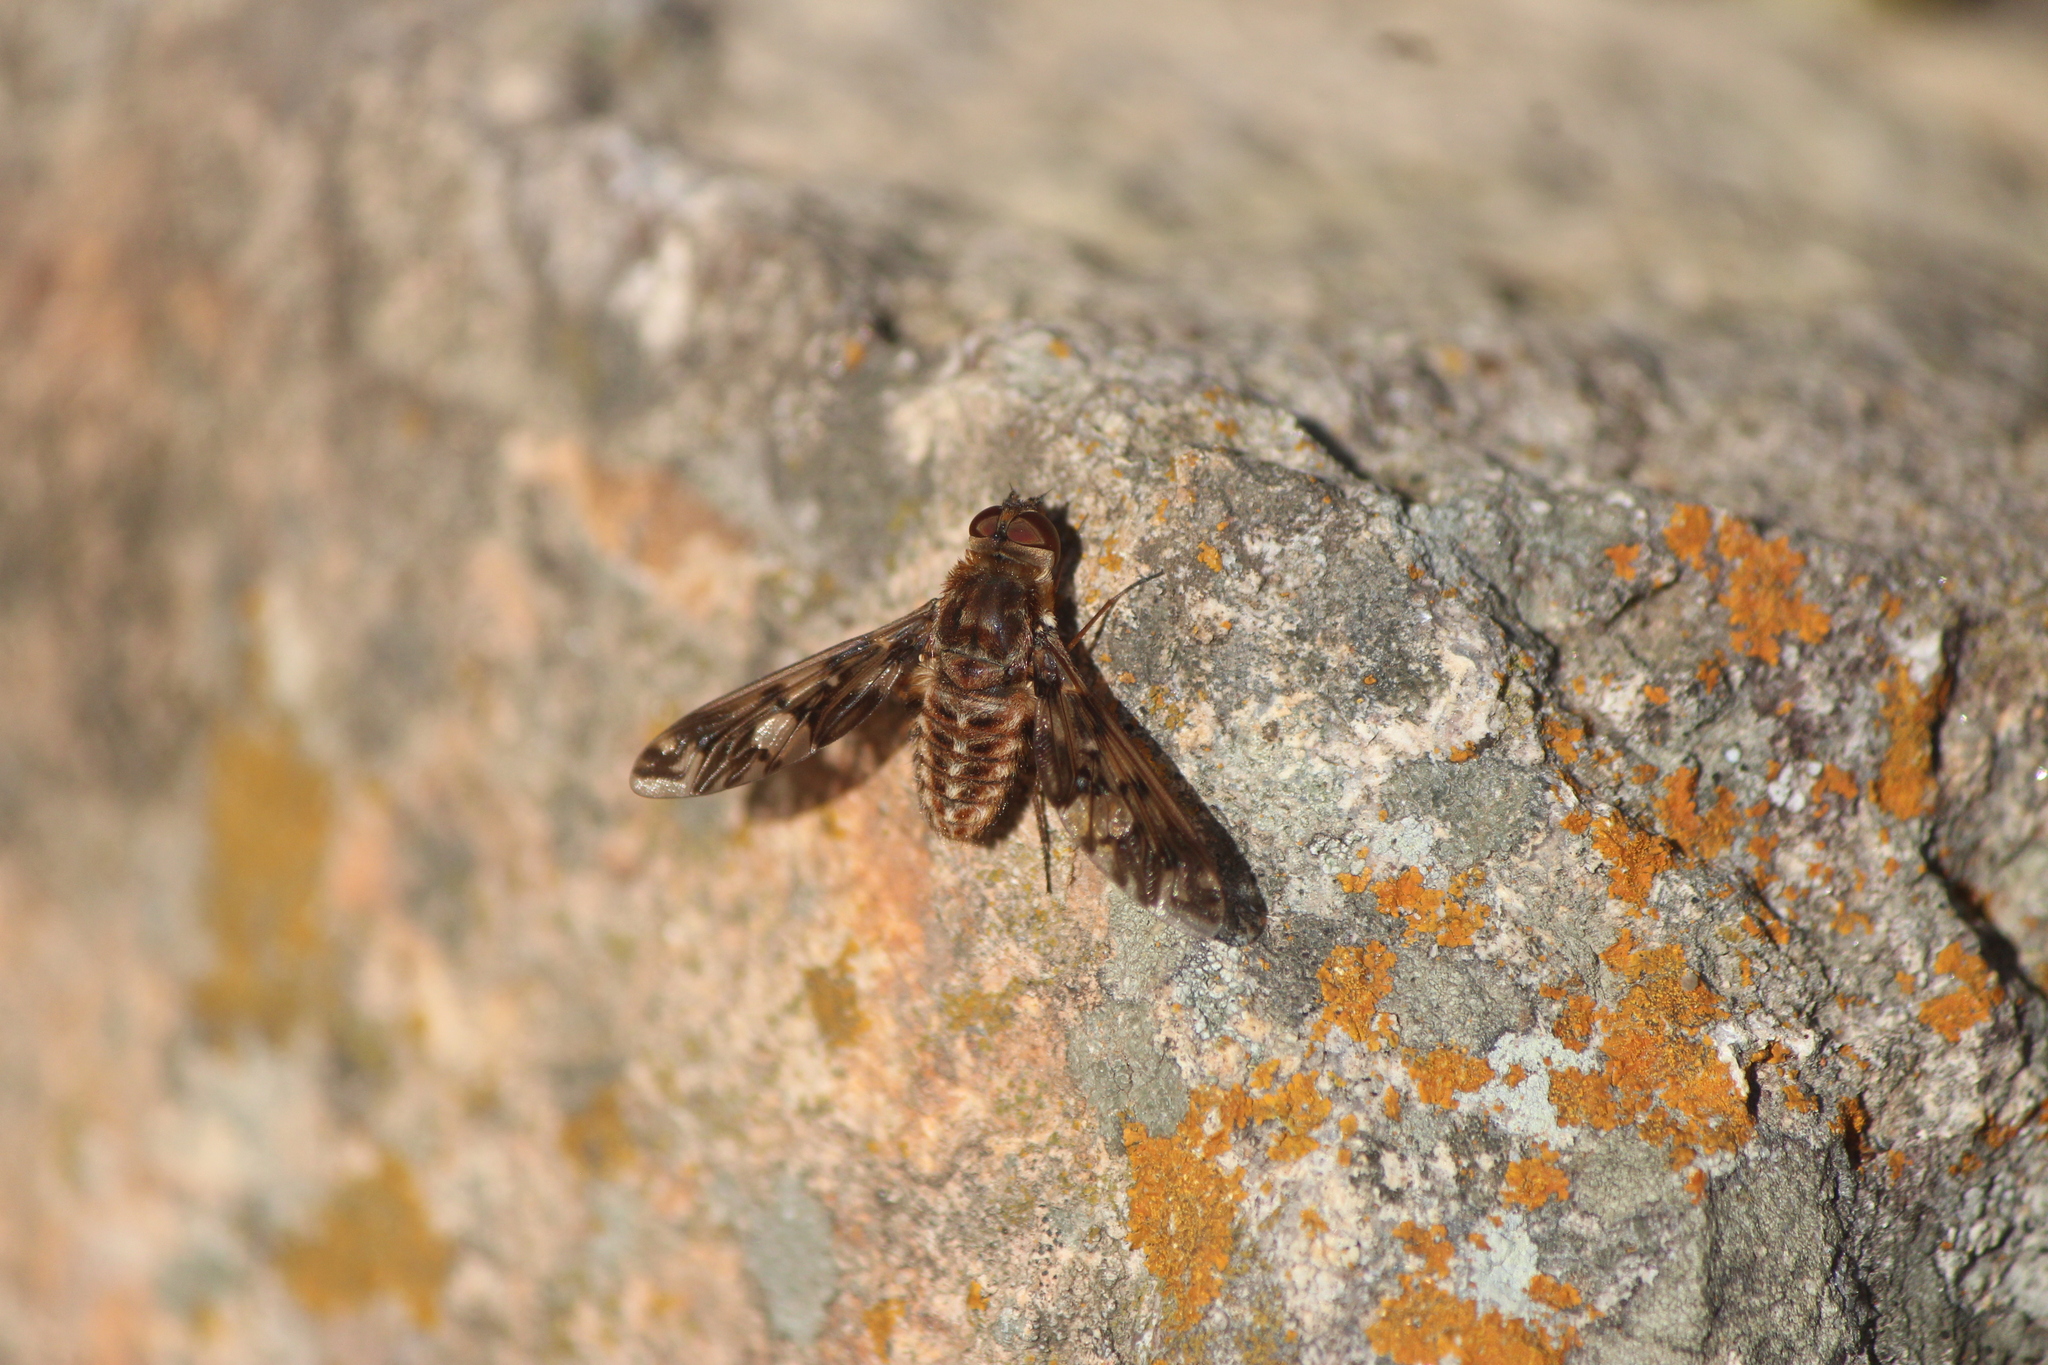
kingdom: Animalia
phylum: Arthropoda
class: Insecta
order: Diptera
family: Bombyliidae
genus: Poecilanthrax
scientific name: Poecilanthrax poecilogaster
